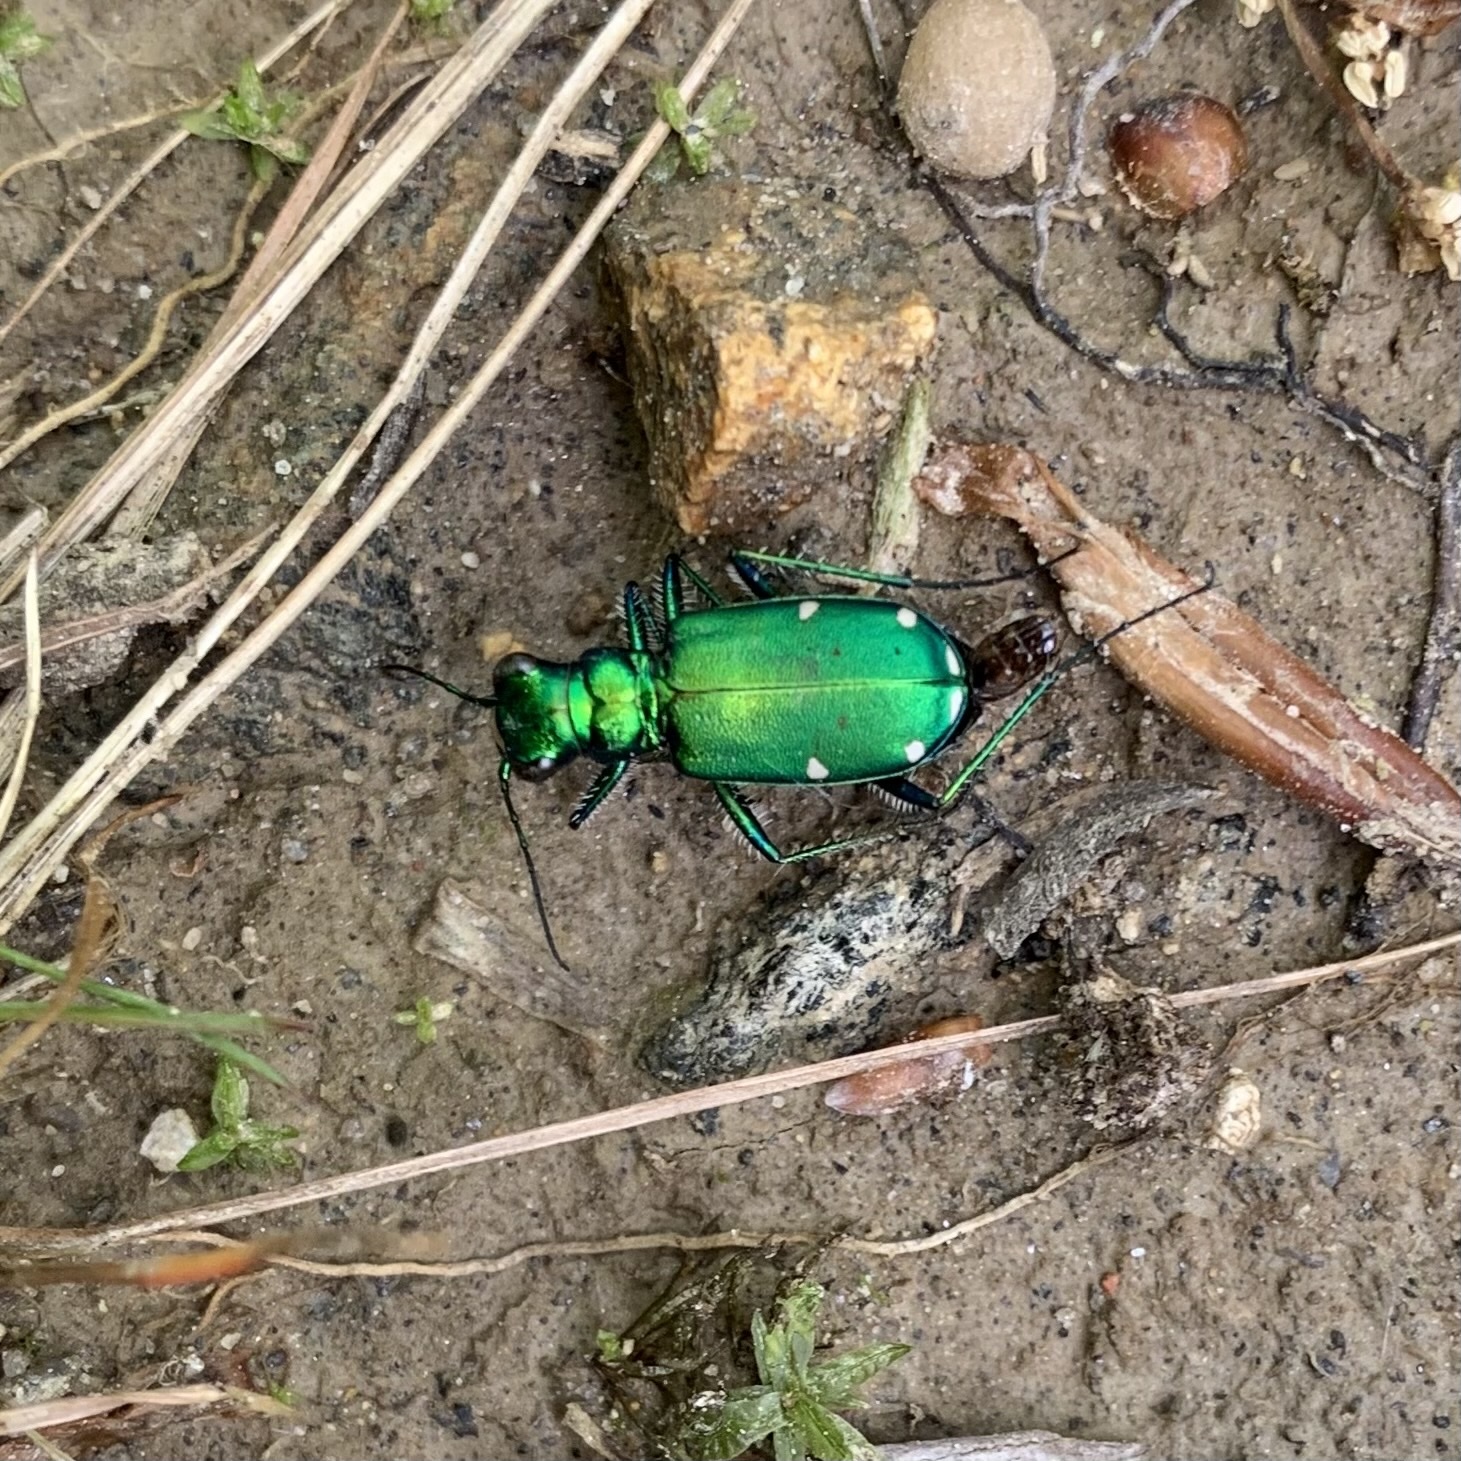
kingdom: Animalia
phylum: Arthropoda
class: Insecta
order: Coleoptera
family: Carabidae
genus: Cicindela
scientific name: Cicindela sexguttata
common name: Six-spotted tiger beetle
